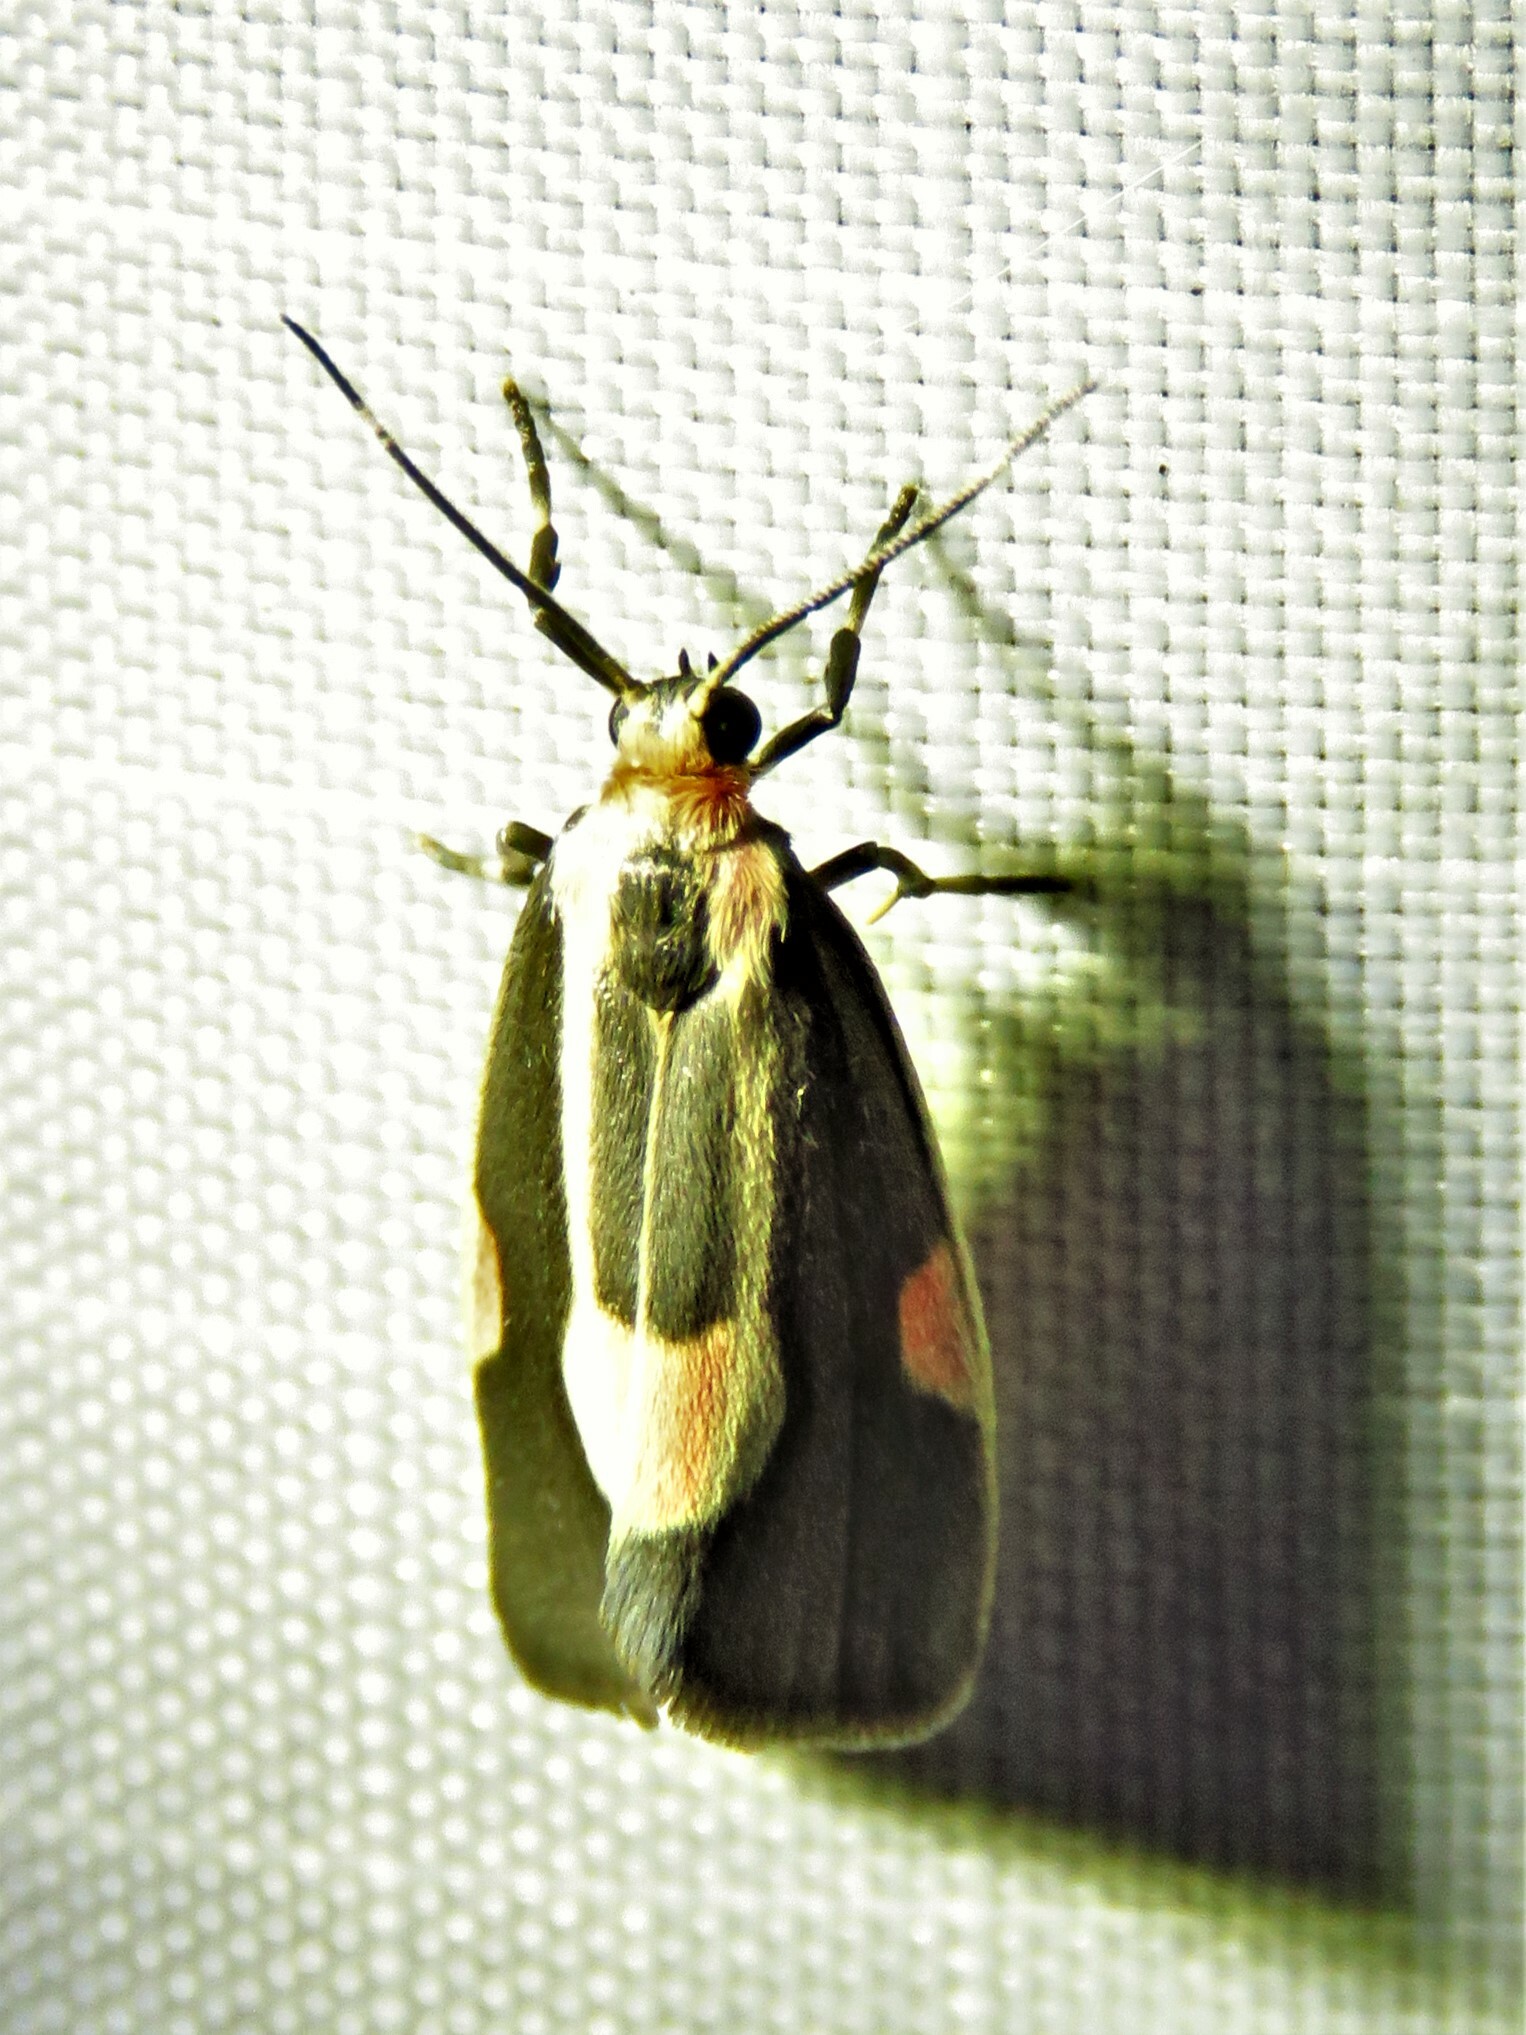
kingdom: Animalia
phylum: Arthropoda
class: Insecta
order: Lepidoptera
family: Erebidae
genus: Cisthene
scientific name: Cisthene packardii
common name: Packard's lichen moth
